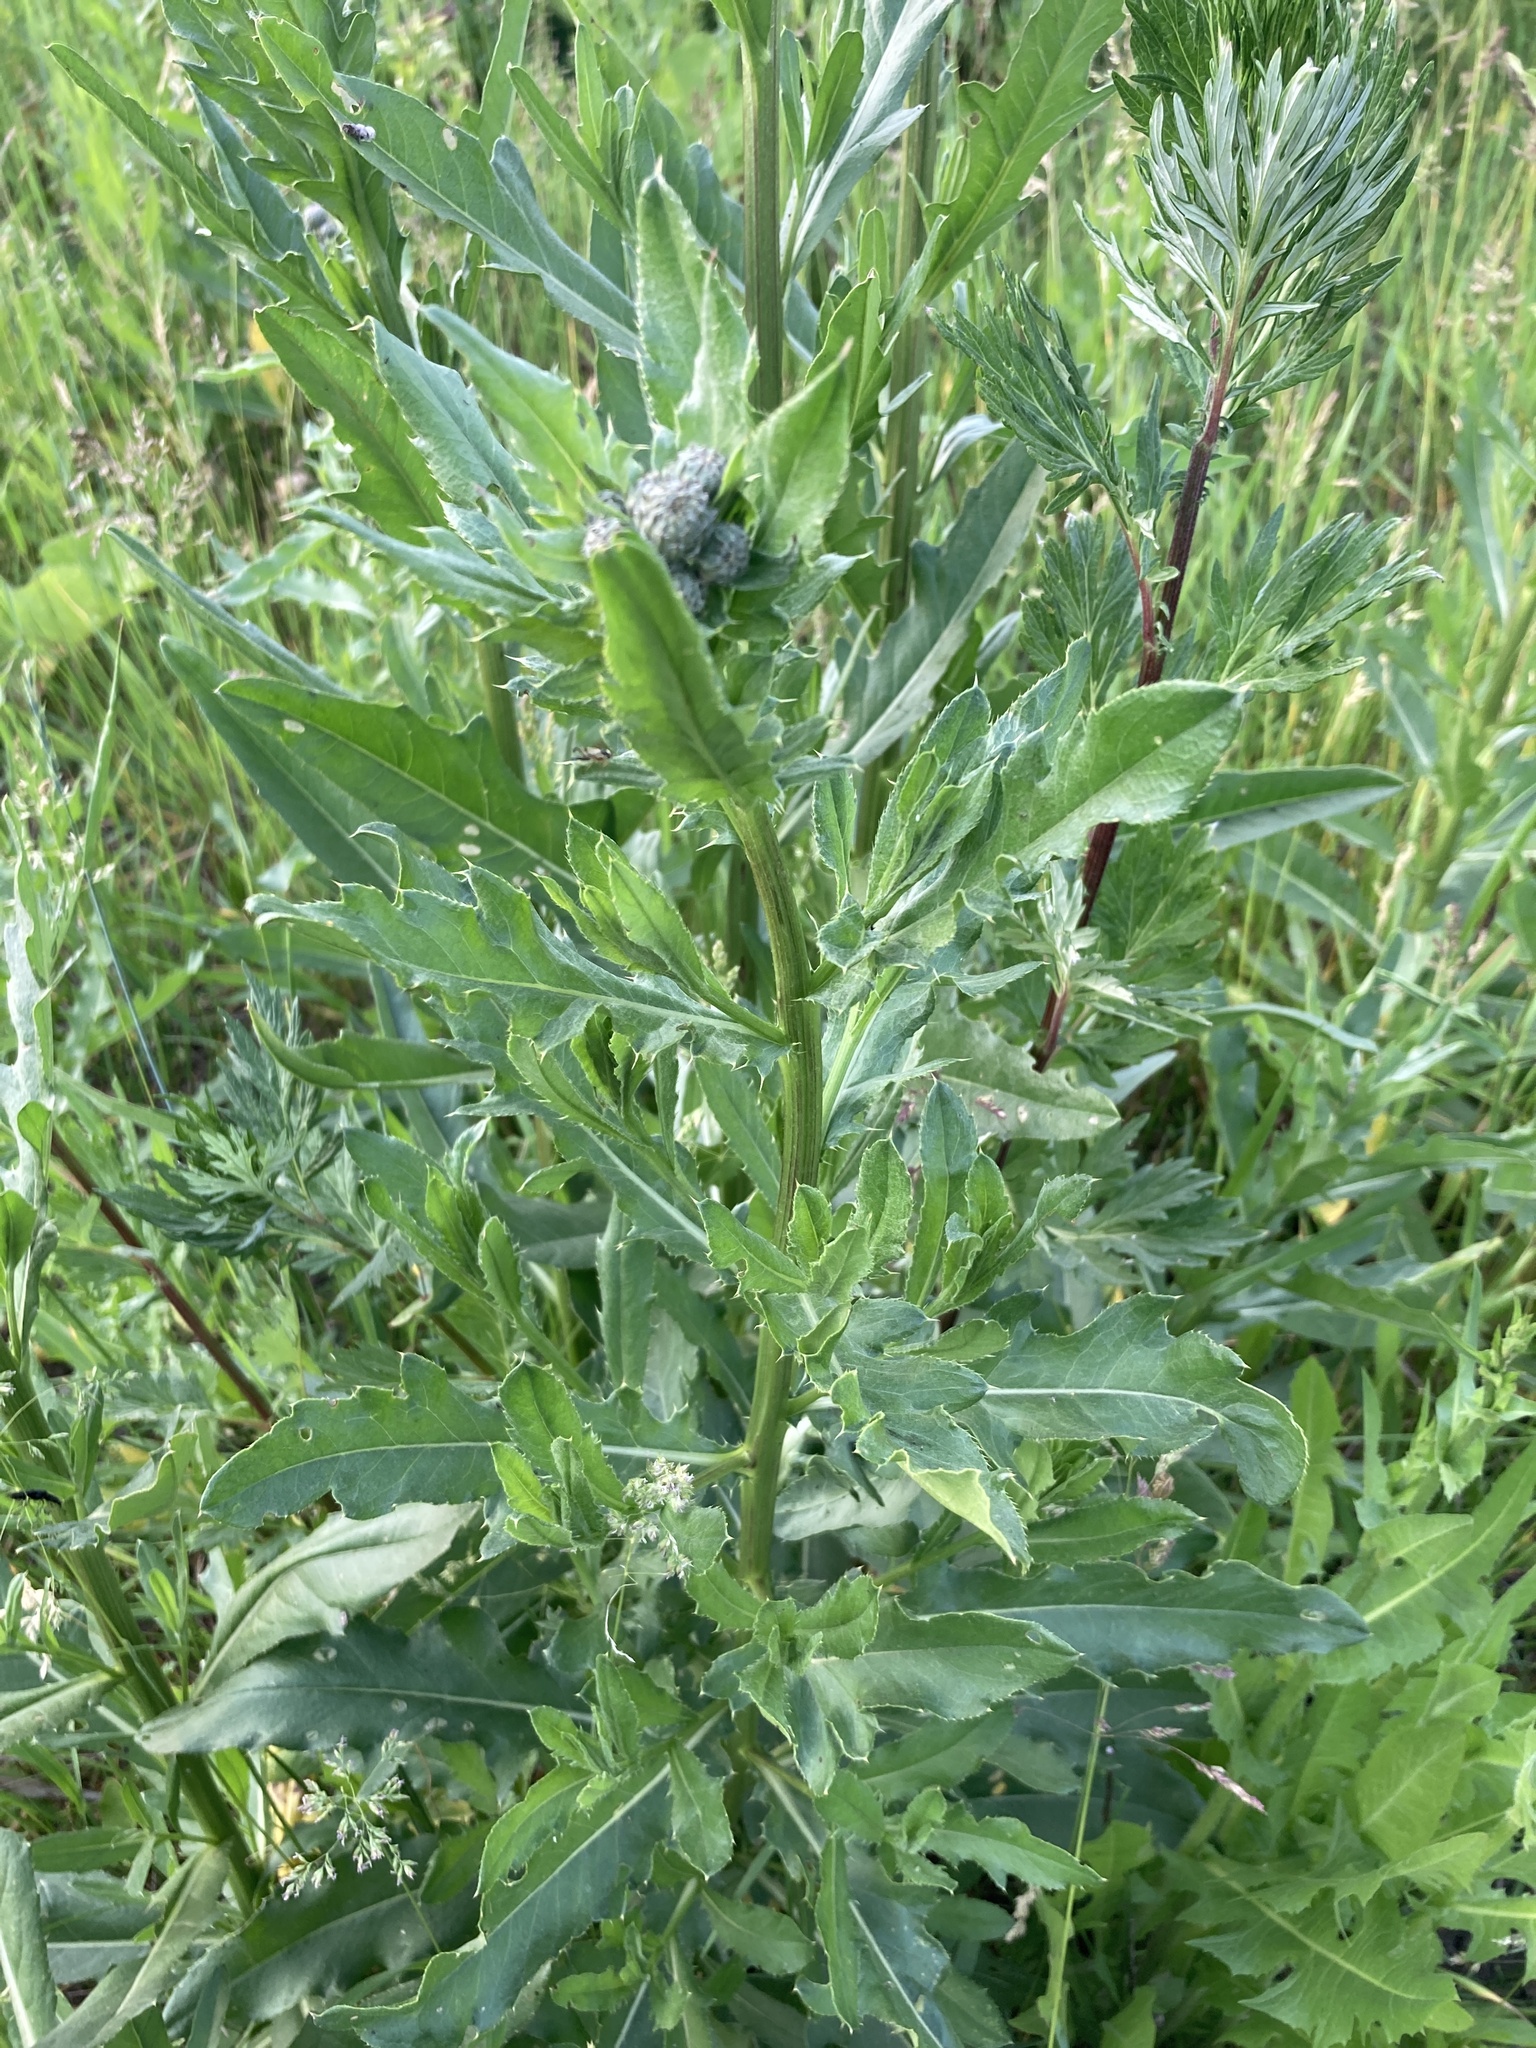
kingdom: Plantae
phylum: Tracheophyta
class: Magnoliopsida
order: Asterales
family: Asteraceae
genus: Cirsium
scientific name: Cirsium arvense
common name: Creeping thistle
